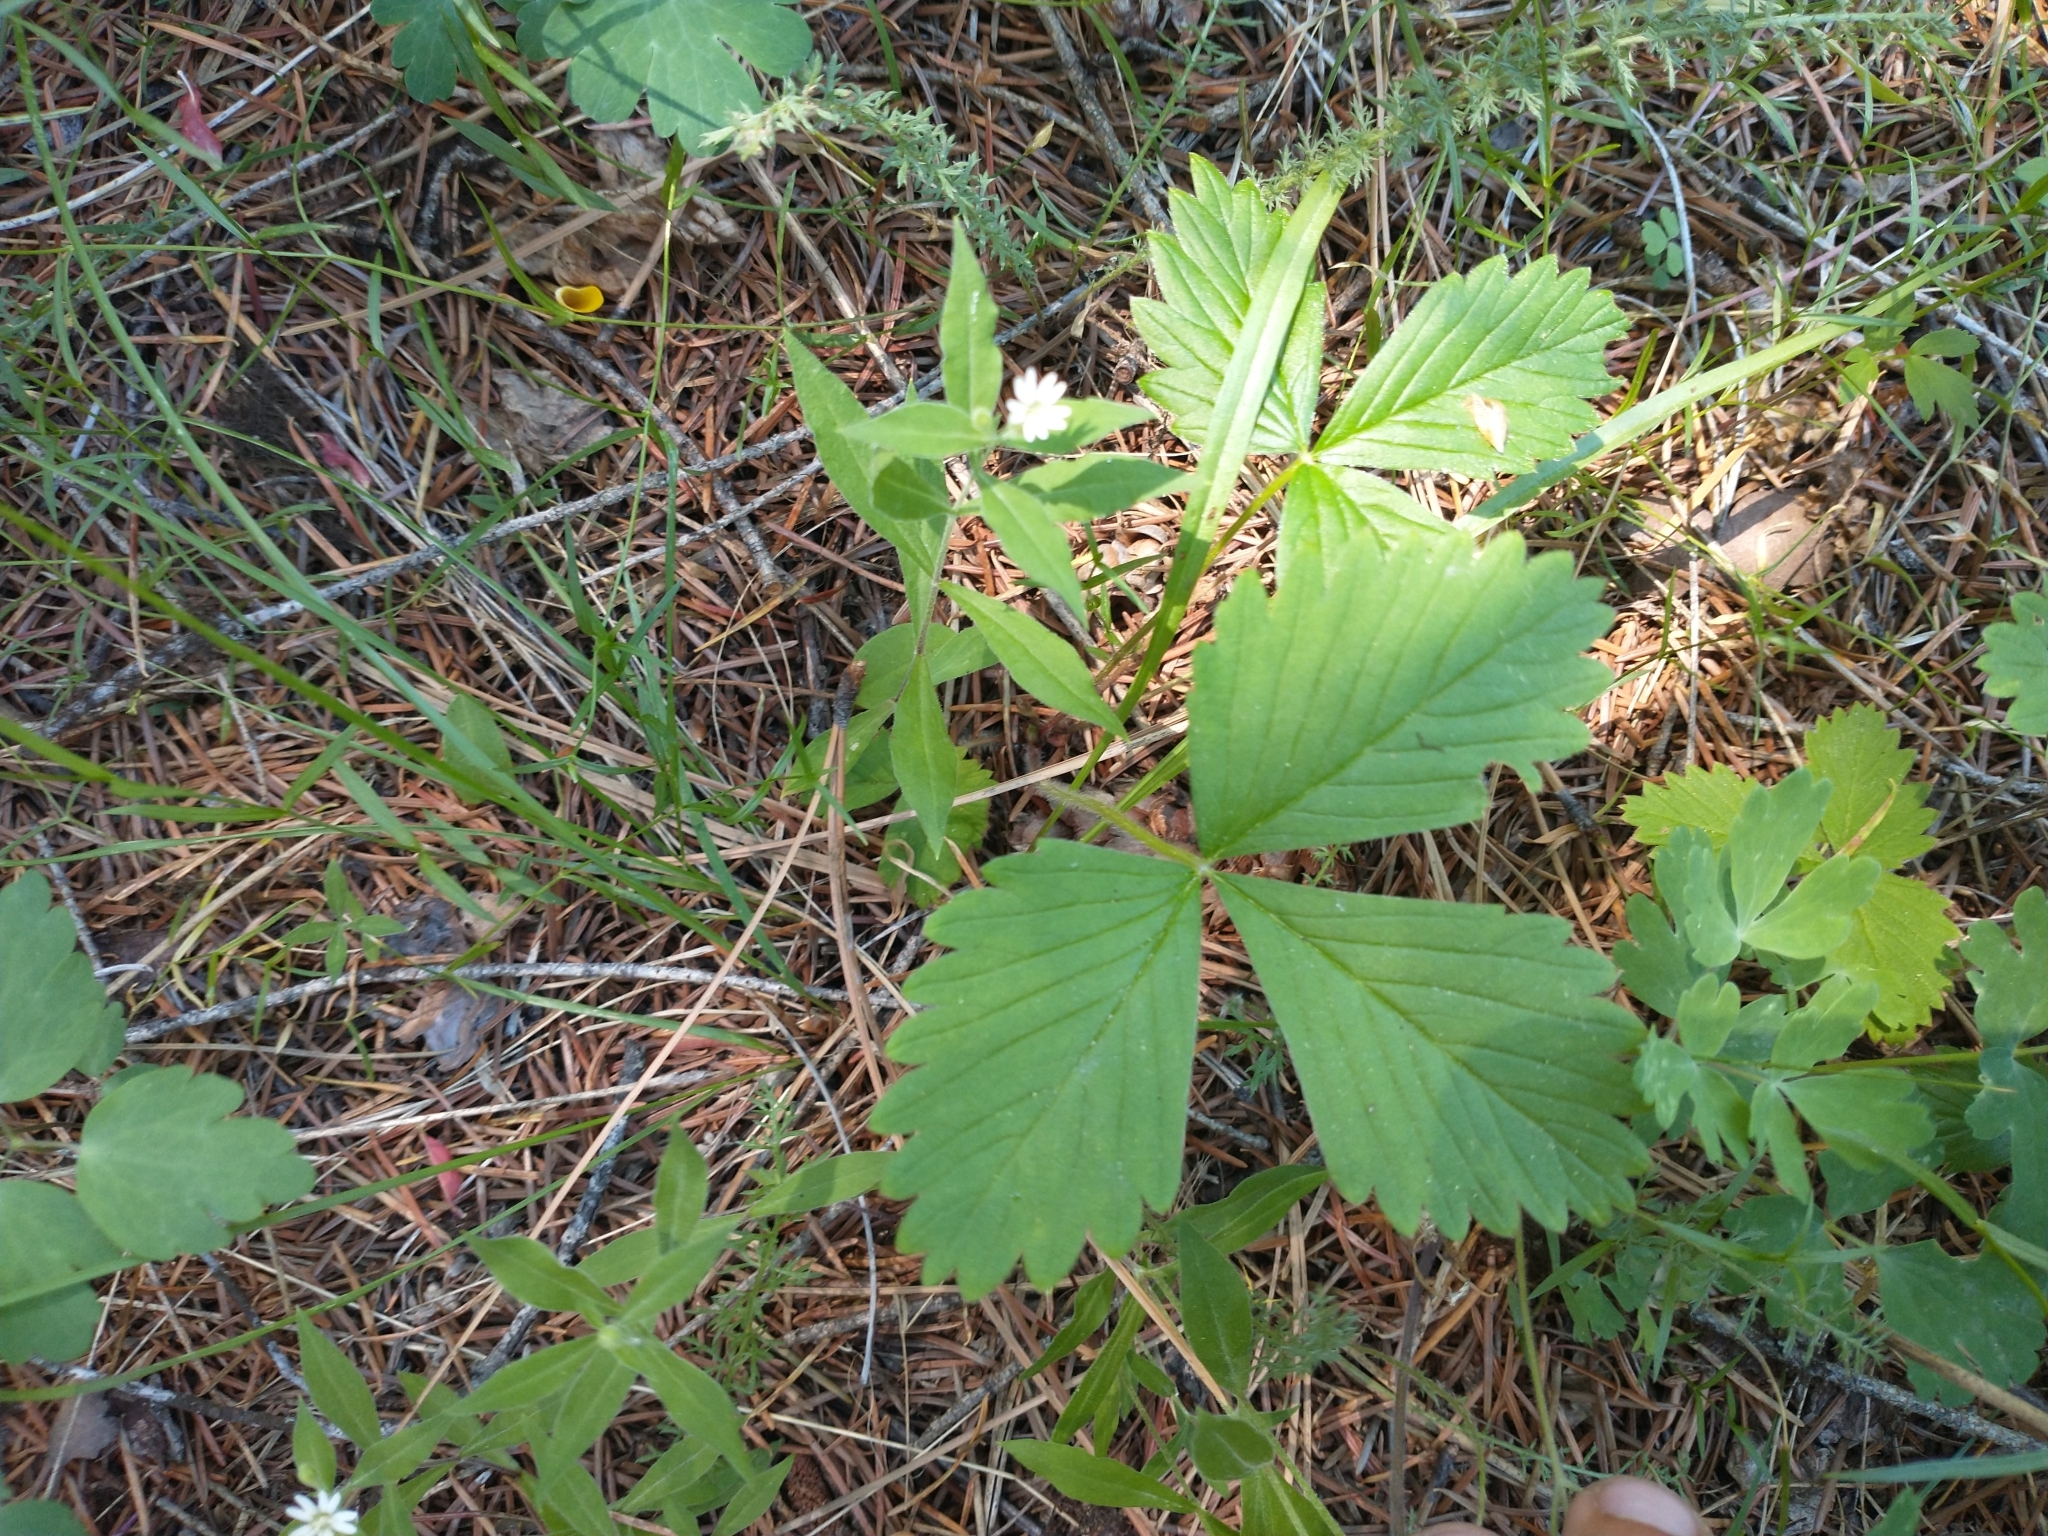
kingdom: Plantae
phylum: Tracheophyta
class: Magnoliopsida
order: Rosales
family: Rosaceae
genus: Fragaria
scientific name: Fragaria vesca
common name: Wild strawberry
